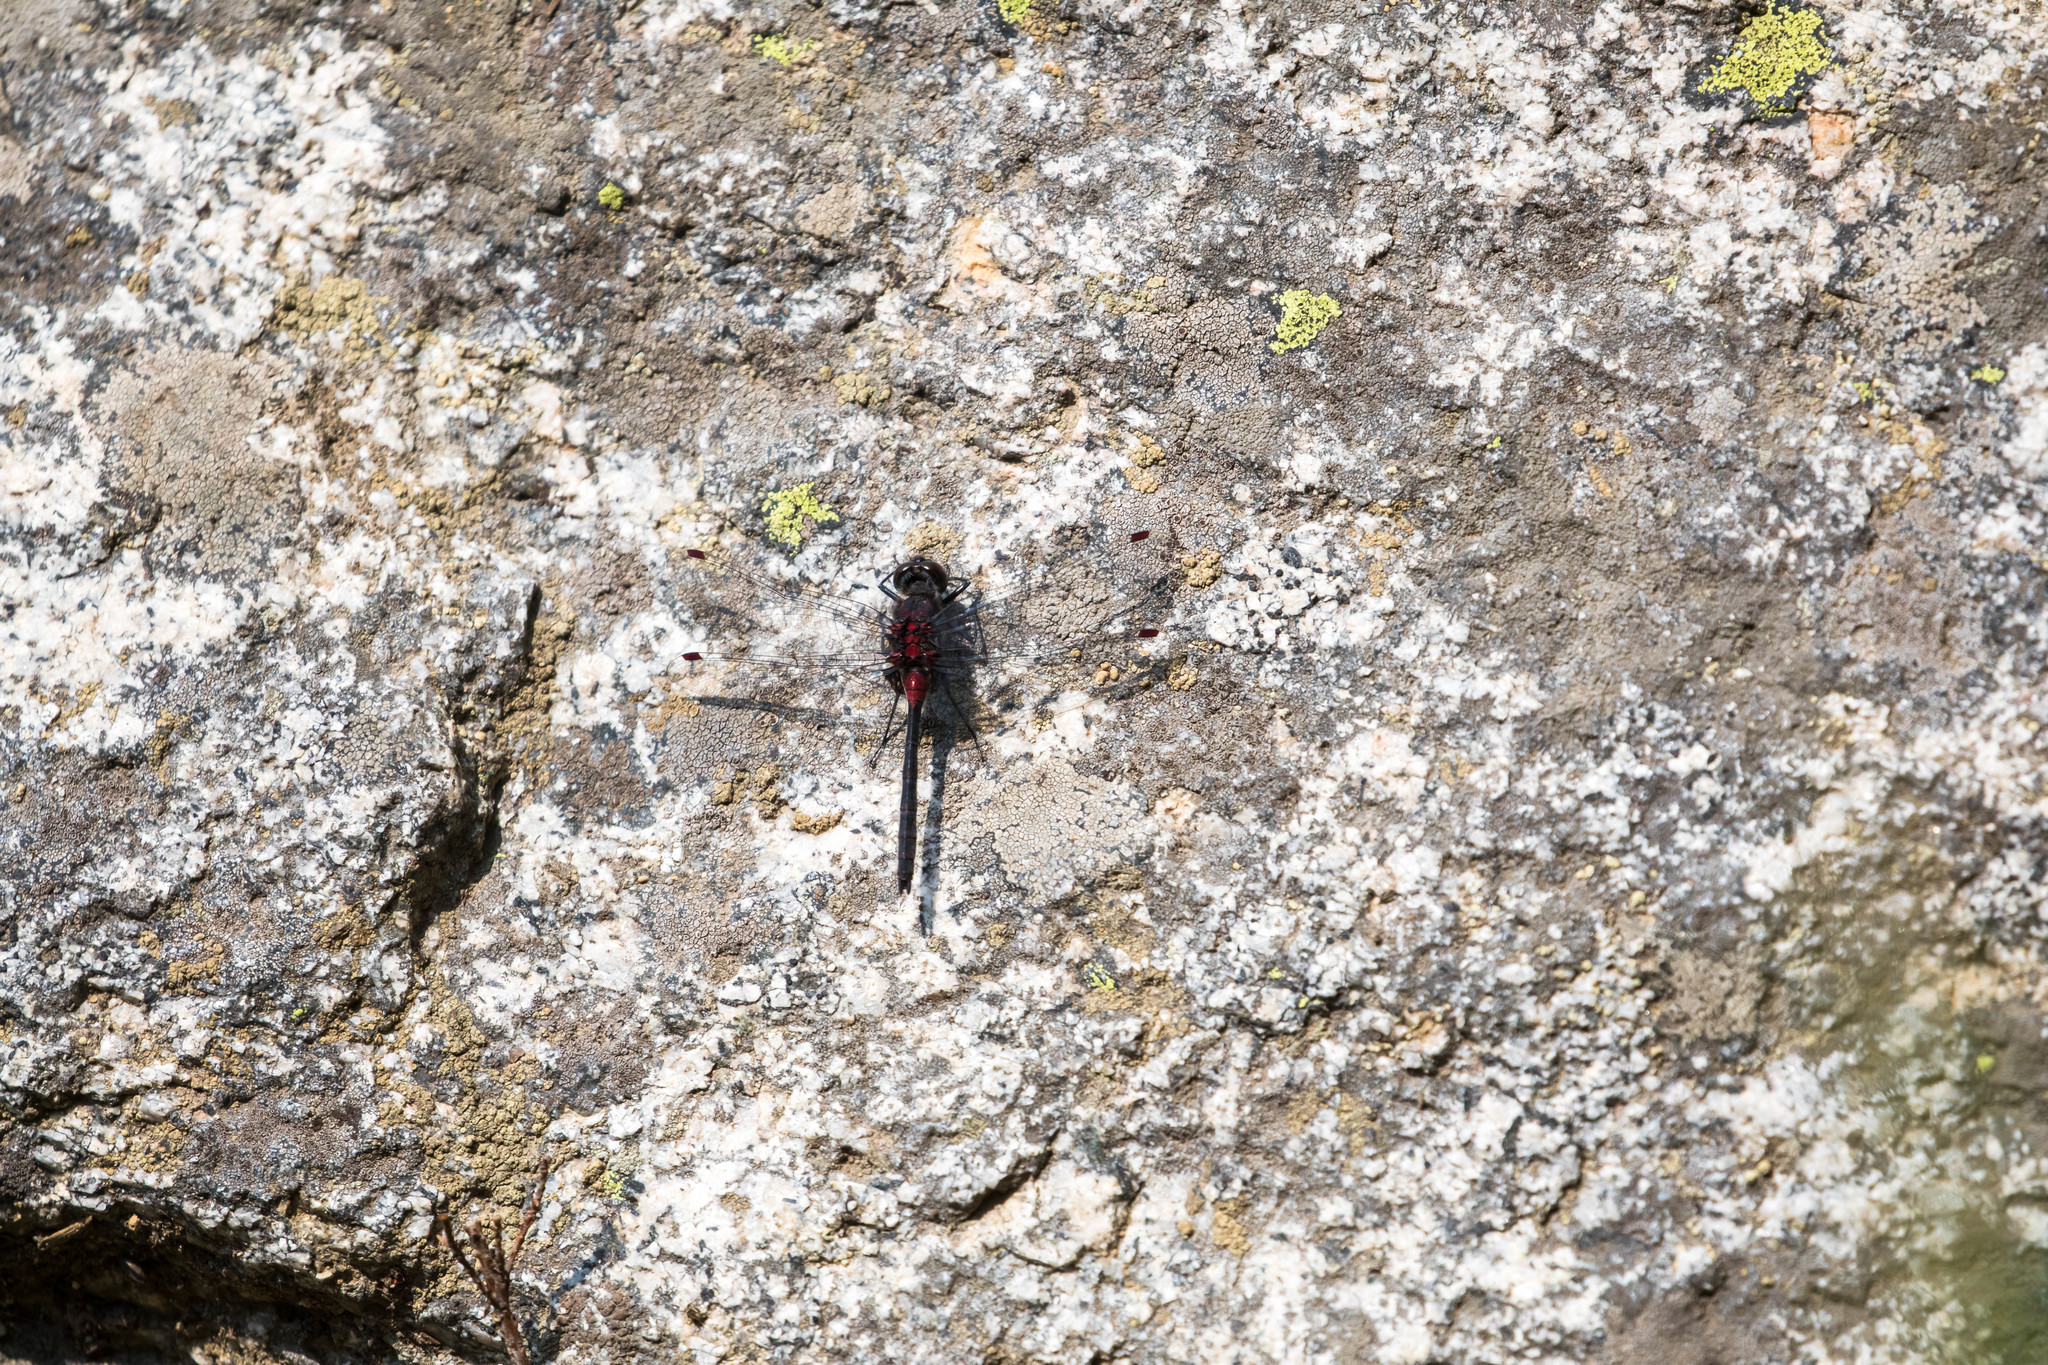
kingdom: Animalia
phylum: Arthropoda
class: Insecta
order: Odonata
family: Libellulidae
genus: Leucorrhinia
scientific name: Leucorrhinia glacialis
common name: Crimson-ringed whiteface
